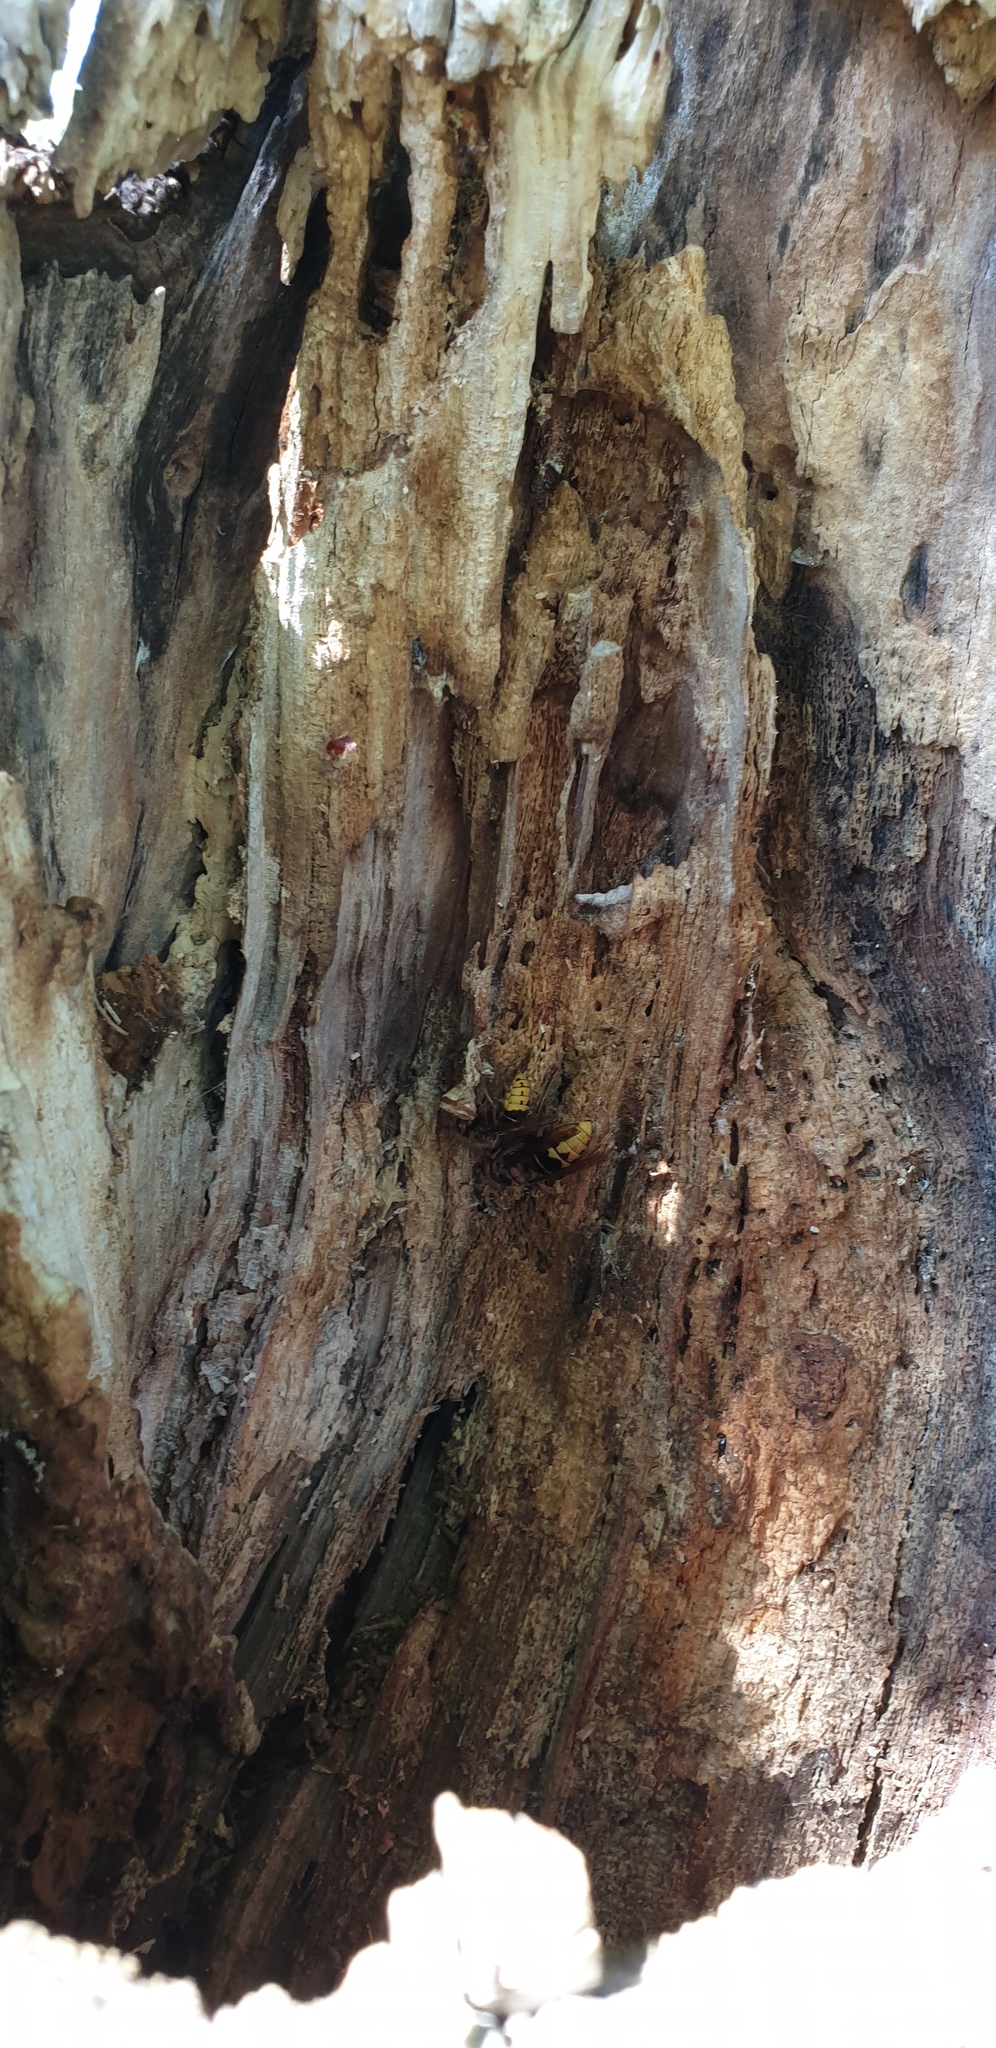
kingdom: Animalia
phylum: Arthropoda
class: Insecta
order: Hymenoptera
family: Vespidae
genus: Vespa
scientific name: Vespa crabro
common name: Hornet
